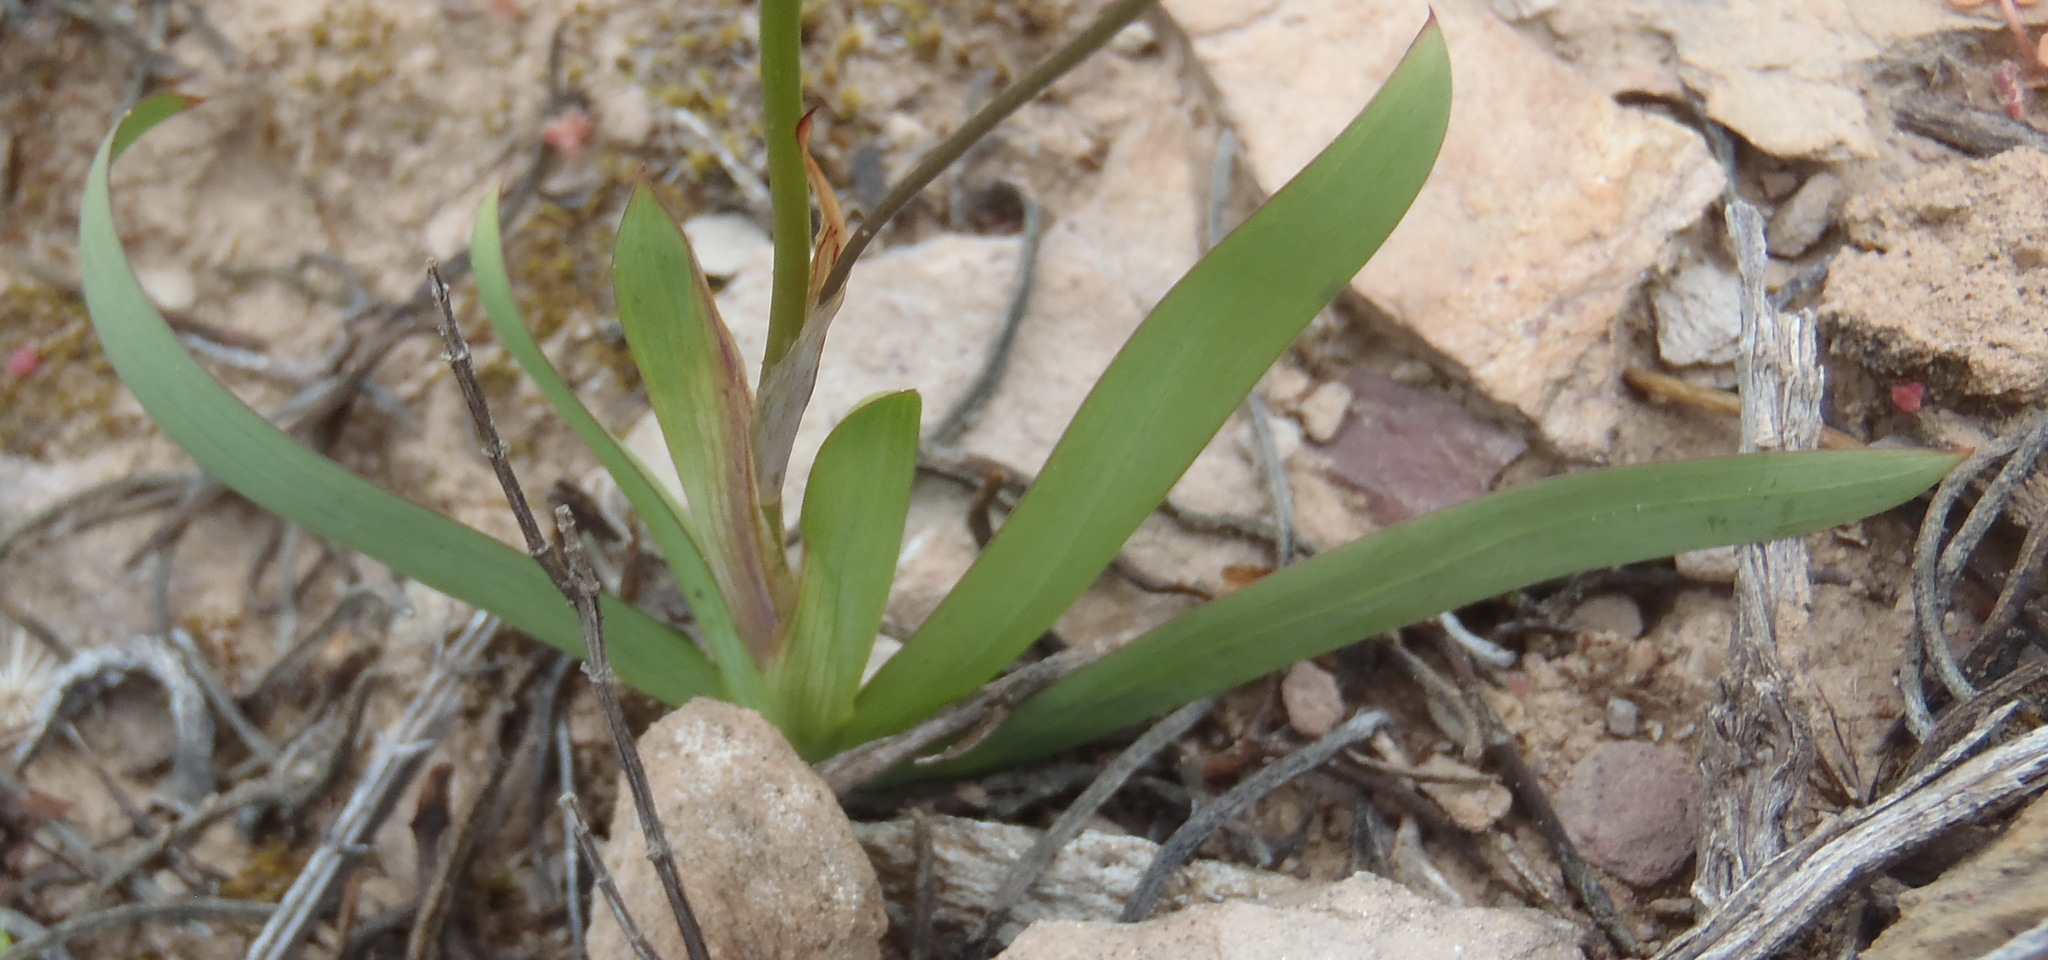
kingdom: Plantae
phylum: Tracheophyta
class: Liliopsida
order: Asparagales
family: Iridaceae
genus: Tritonia
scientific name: Tritonia securigera
